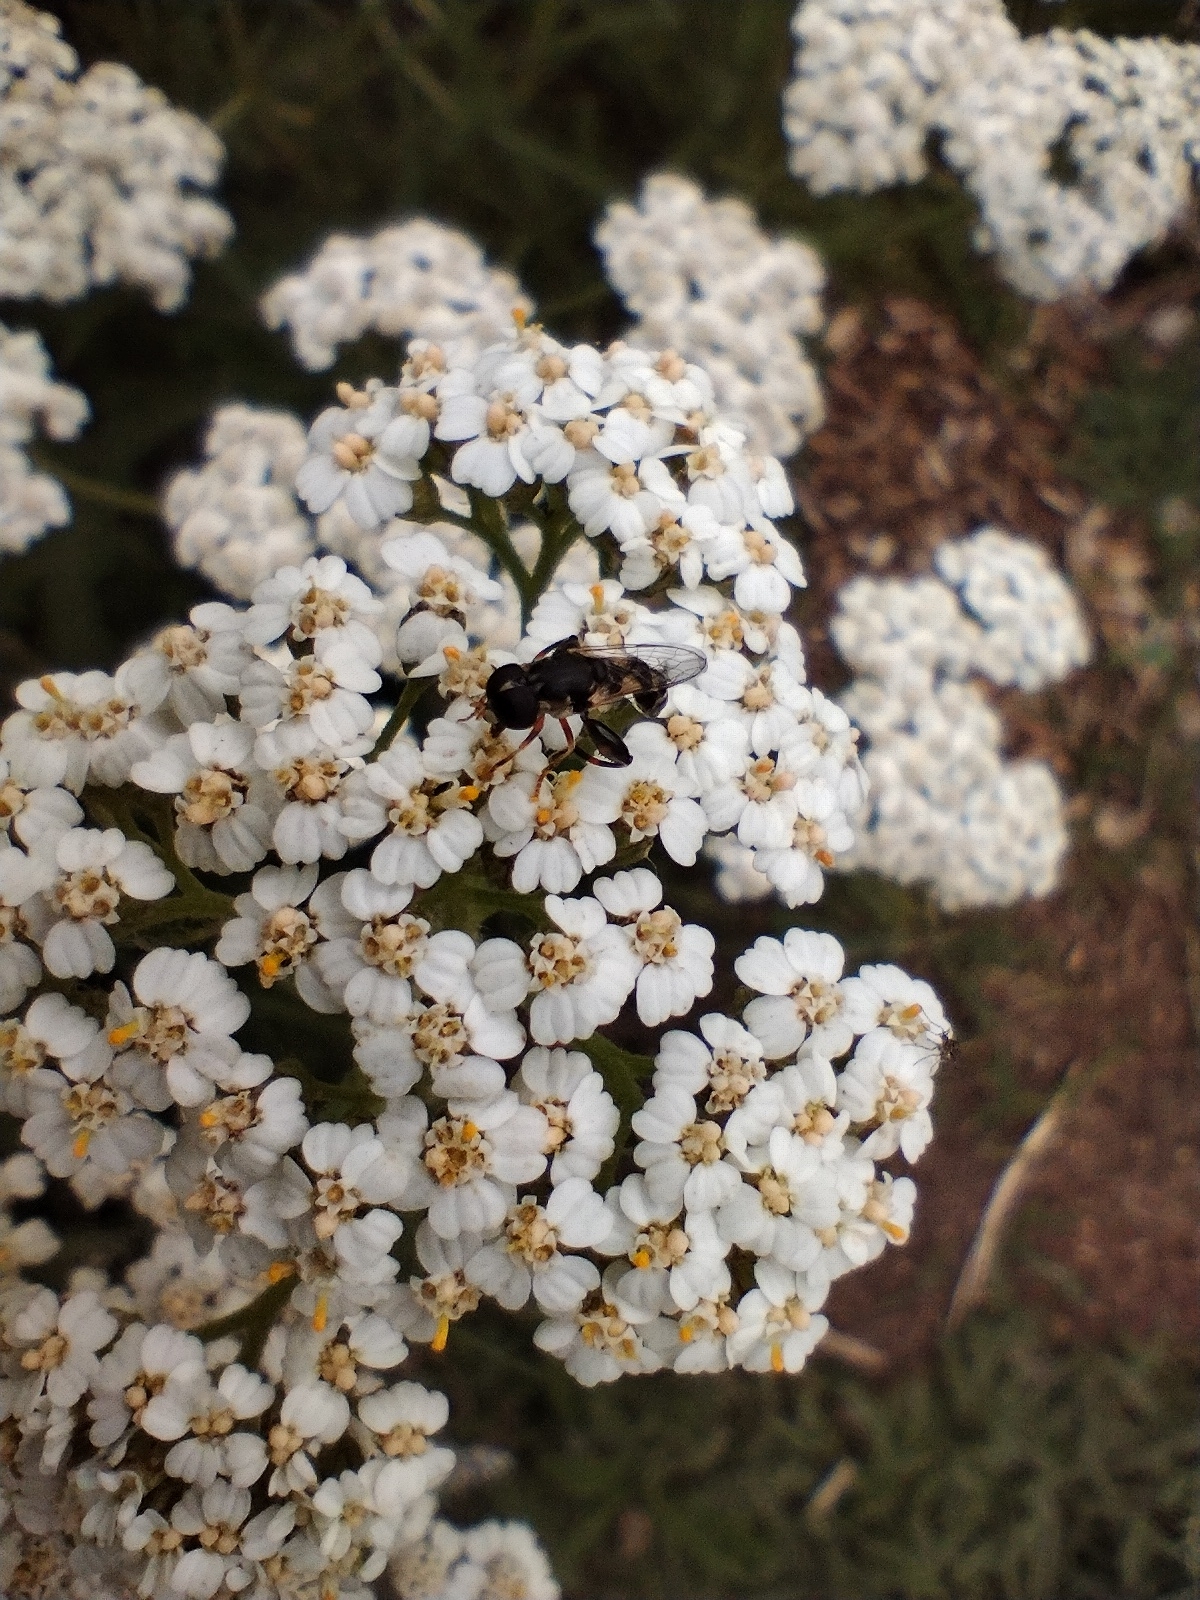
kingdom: Animalia
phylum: Arthropoda
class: Insecta
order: Diptera
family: Syrphidae
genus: Syritta
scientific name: Syritta pipiens
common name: Hover fly
